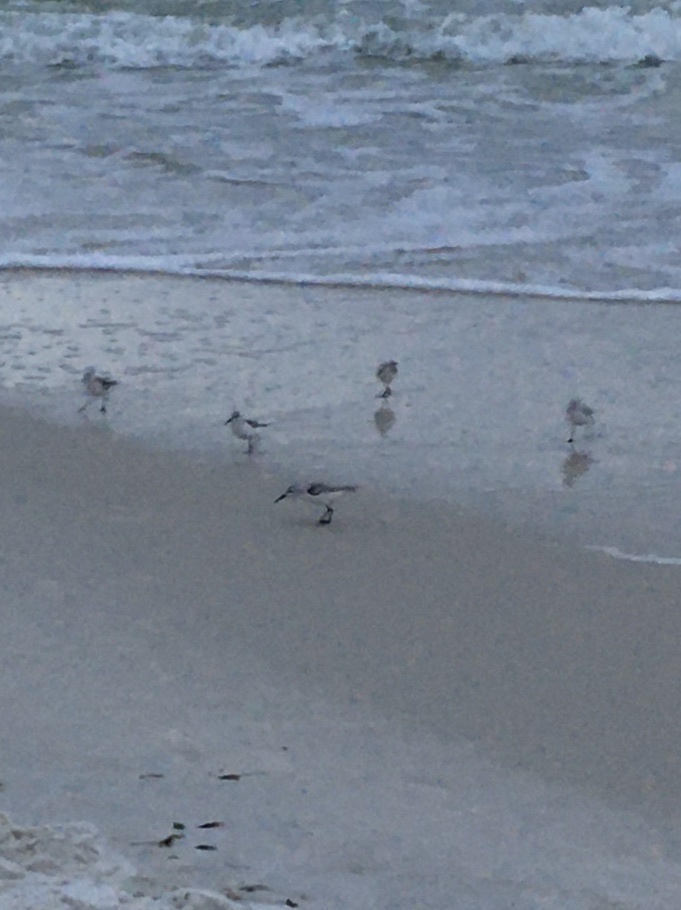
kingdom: Animalia
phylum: Chordata
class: Aves
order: Charadriiformes
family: Scolopacidae
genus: Calidris
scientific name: Calidris alba
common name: Sanderling
